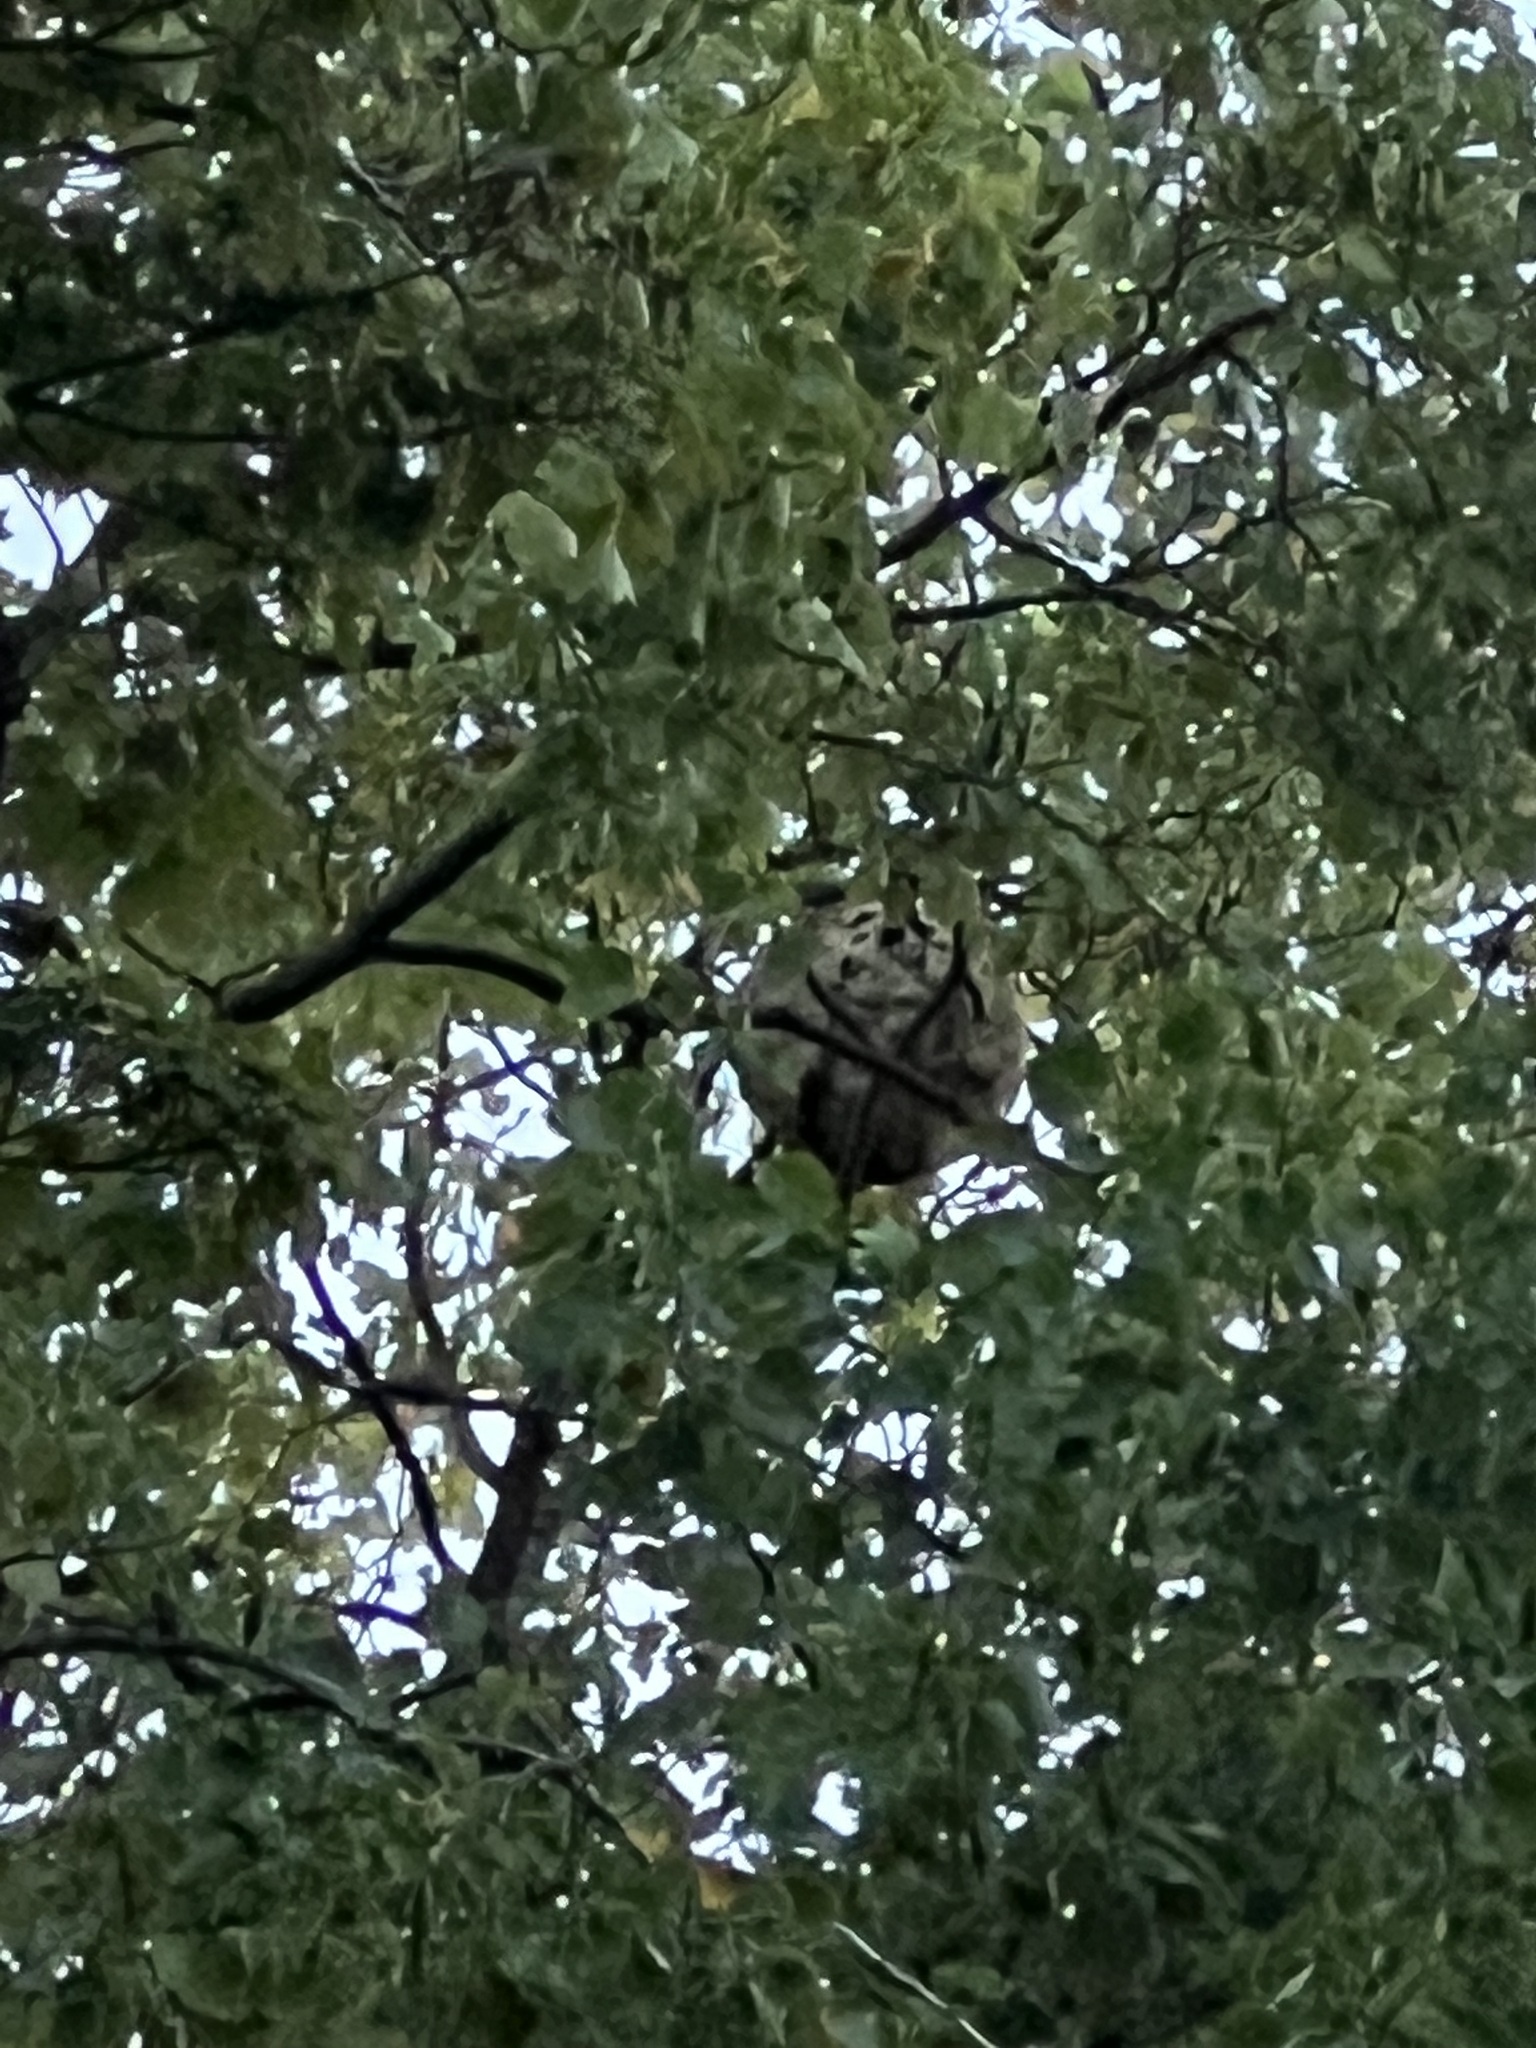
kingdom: Animalia
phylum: Arthropoda
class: Insecta
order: Hymenoptera
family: Vespidae
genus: Vespa
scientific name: Vespa velutina
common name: Asian hornet
